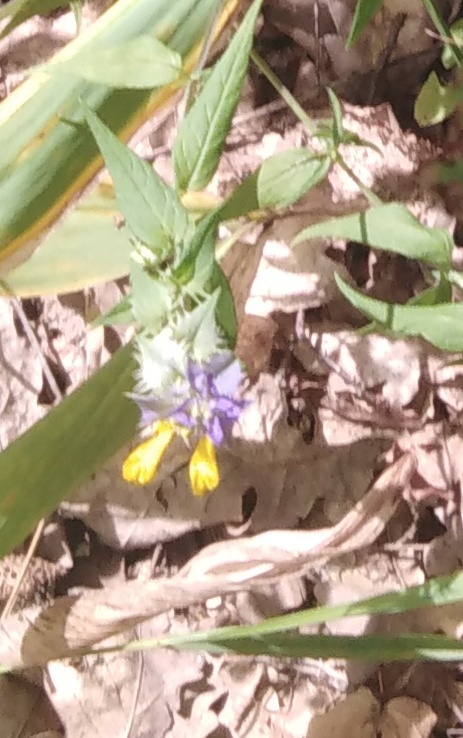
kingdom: Plantae
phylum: Tracheophyta
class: Magnoliopsida
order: Lamiales
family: Orobanchaceae
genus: Melampyrum
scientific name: Melampyrum nemorosum
